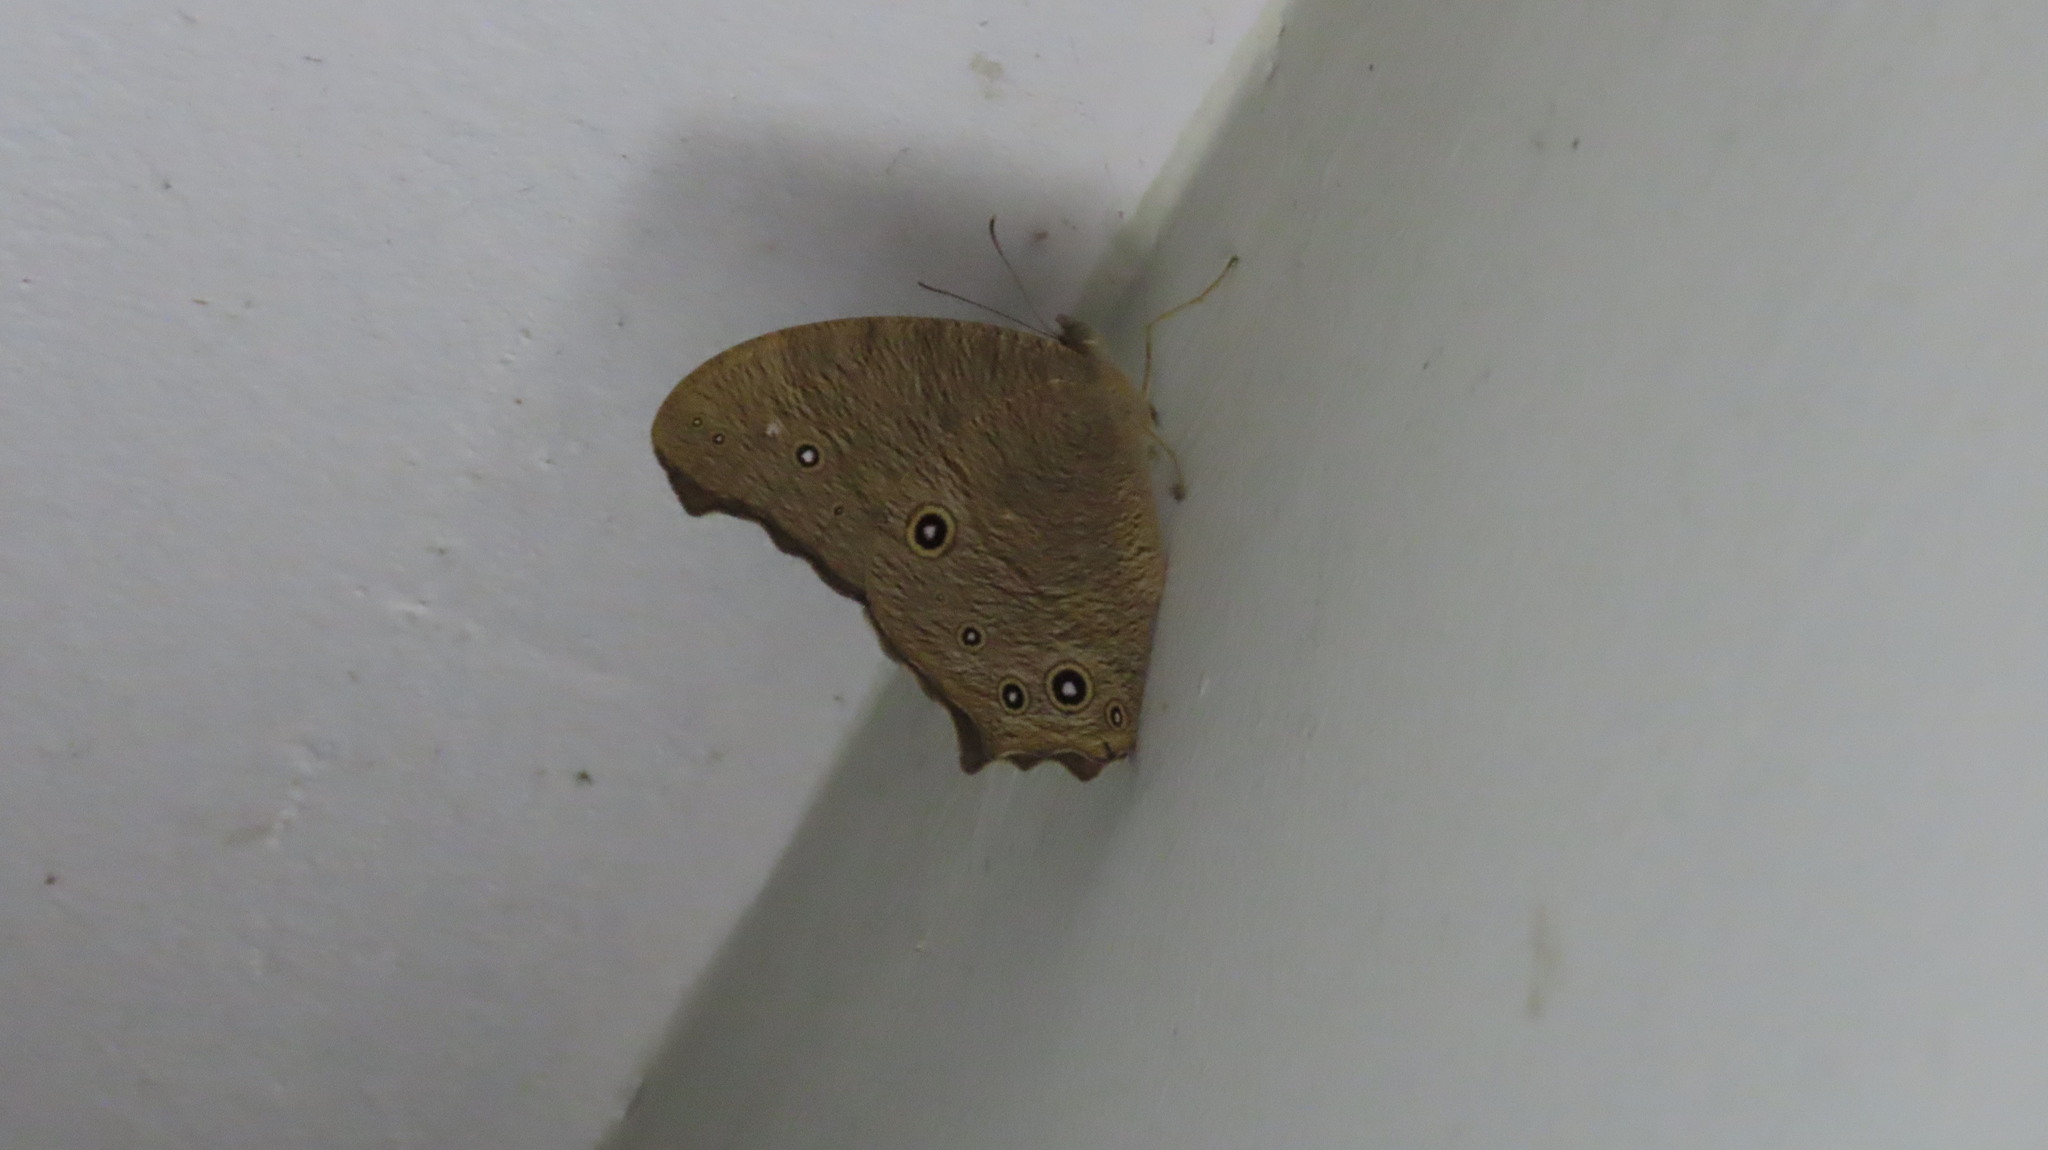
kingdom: Animalia
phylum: Arthropoda
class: Insecta
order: Lepidoptera
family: Nymphalidae
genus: Melanitis
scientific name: Melanitis leda
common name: Twilight brown
